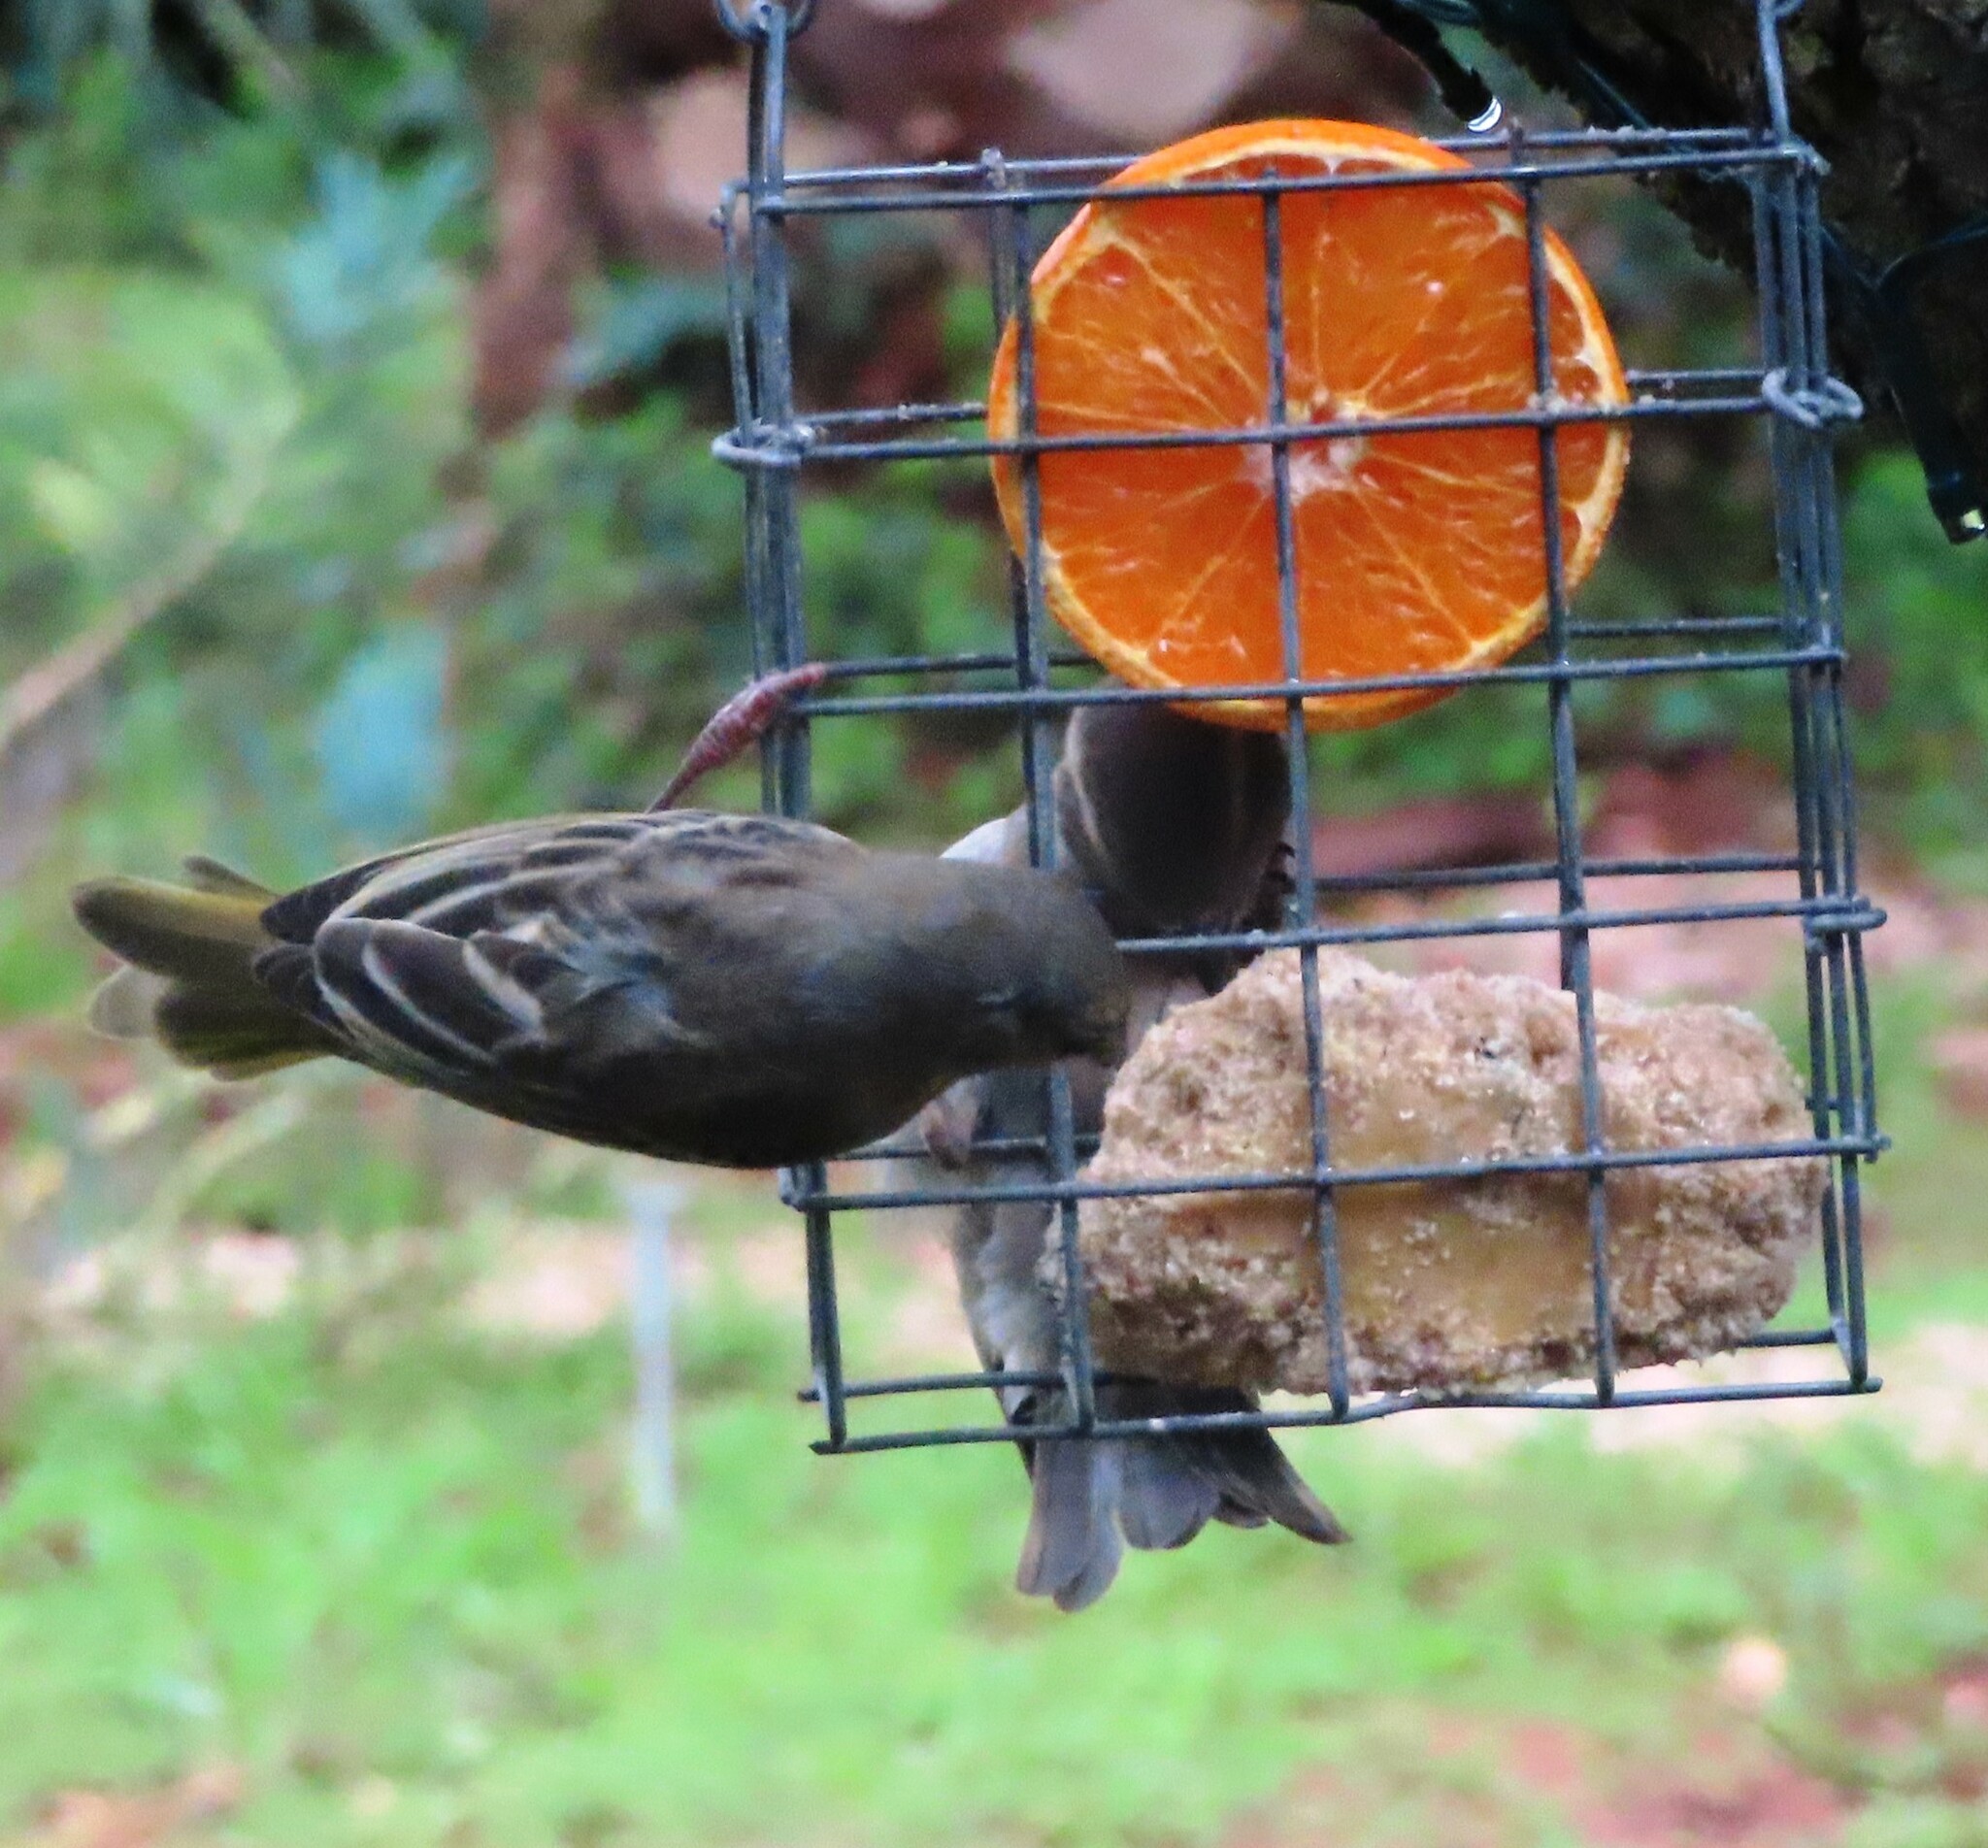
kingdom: Animalia
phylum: Chordata
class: Aves
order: Passeriformes
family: Passeridae
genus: Passer
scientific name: Passer melanurus
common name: Cape sparrow
